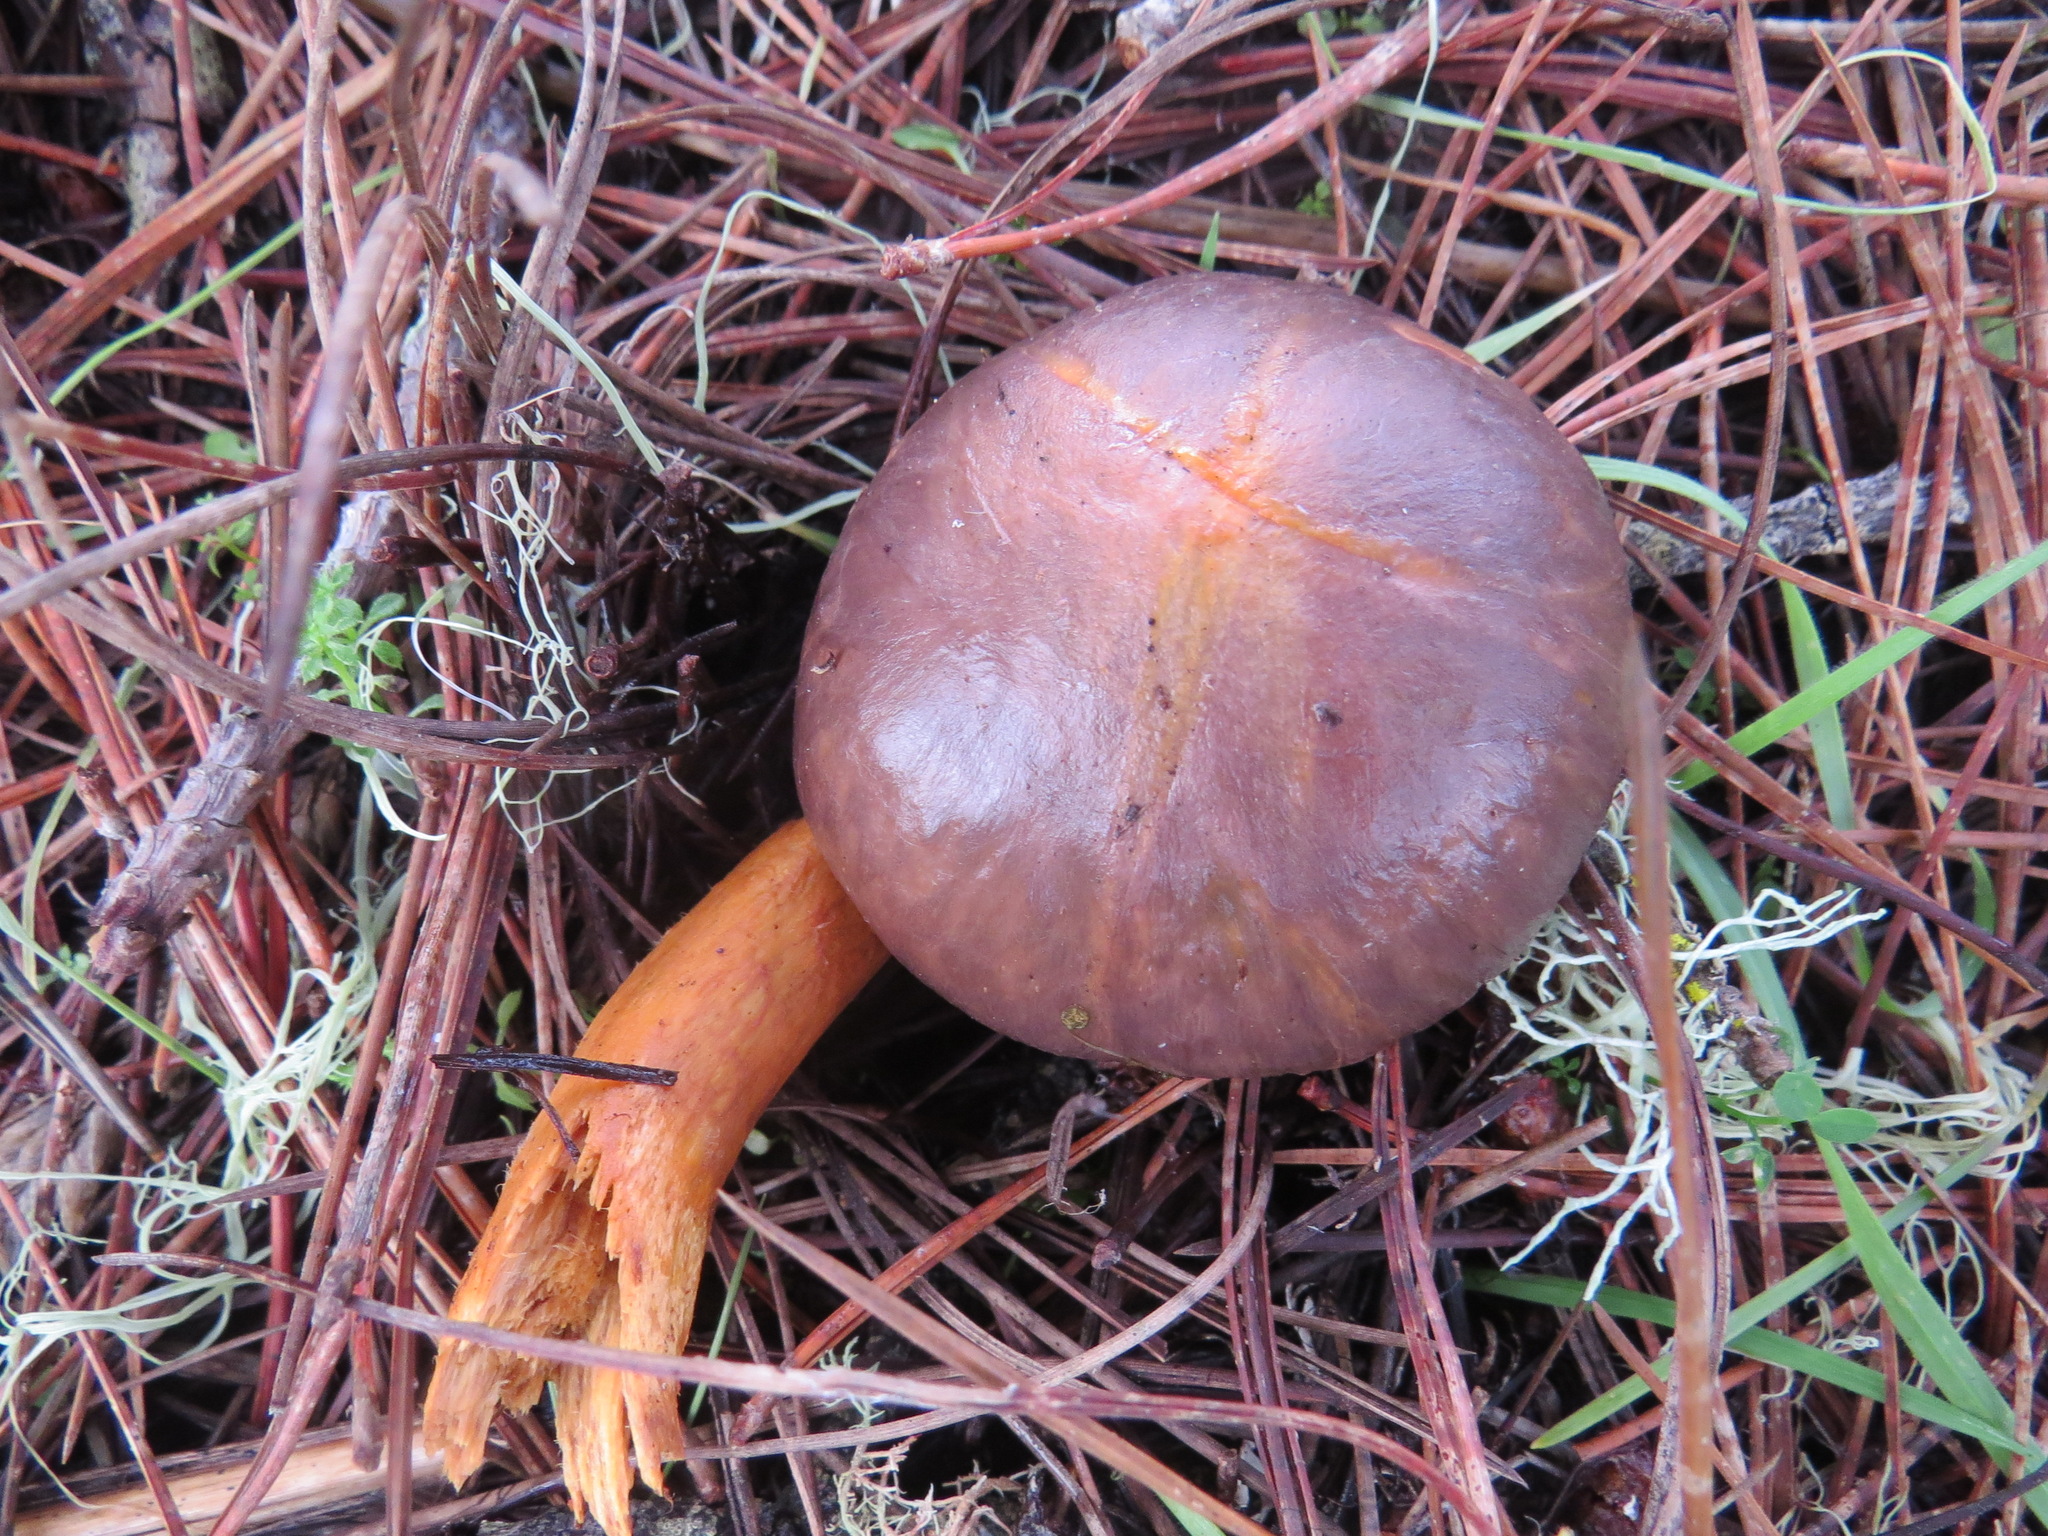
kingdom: Fungi
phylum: Basidiomycota
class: Agaricomycetes
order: Boletales
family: Gomphidiaceae
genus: Chroogomphus
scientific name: Chroogomphus vinicolor
